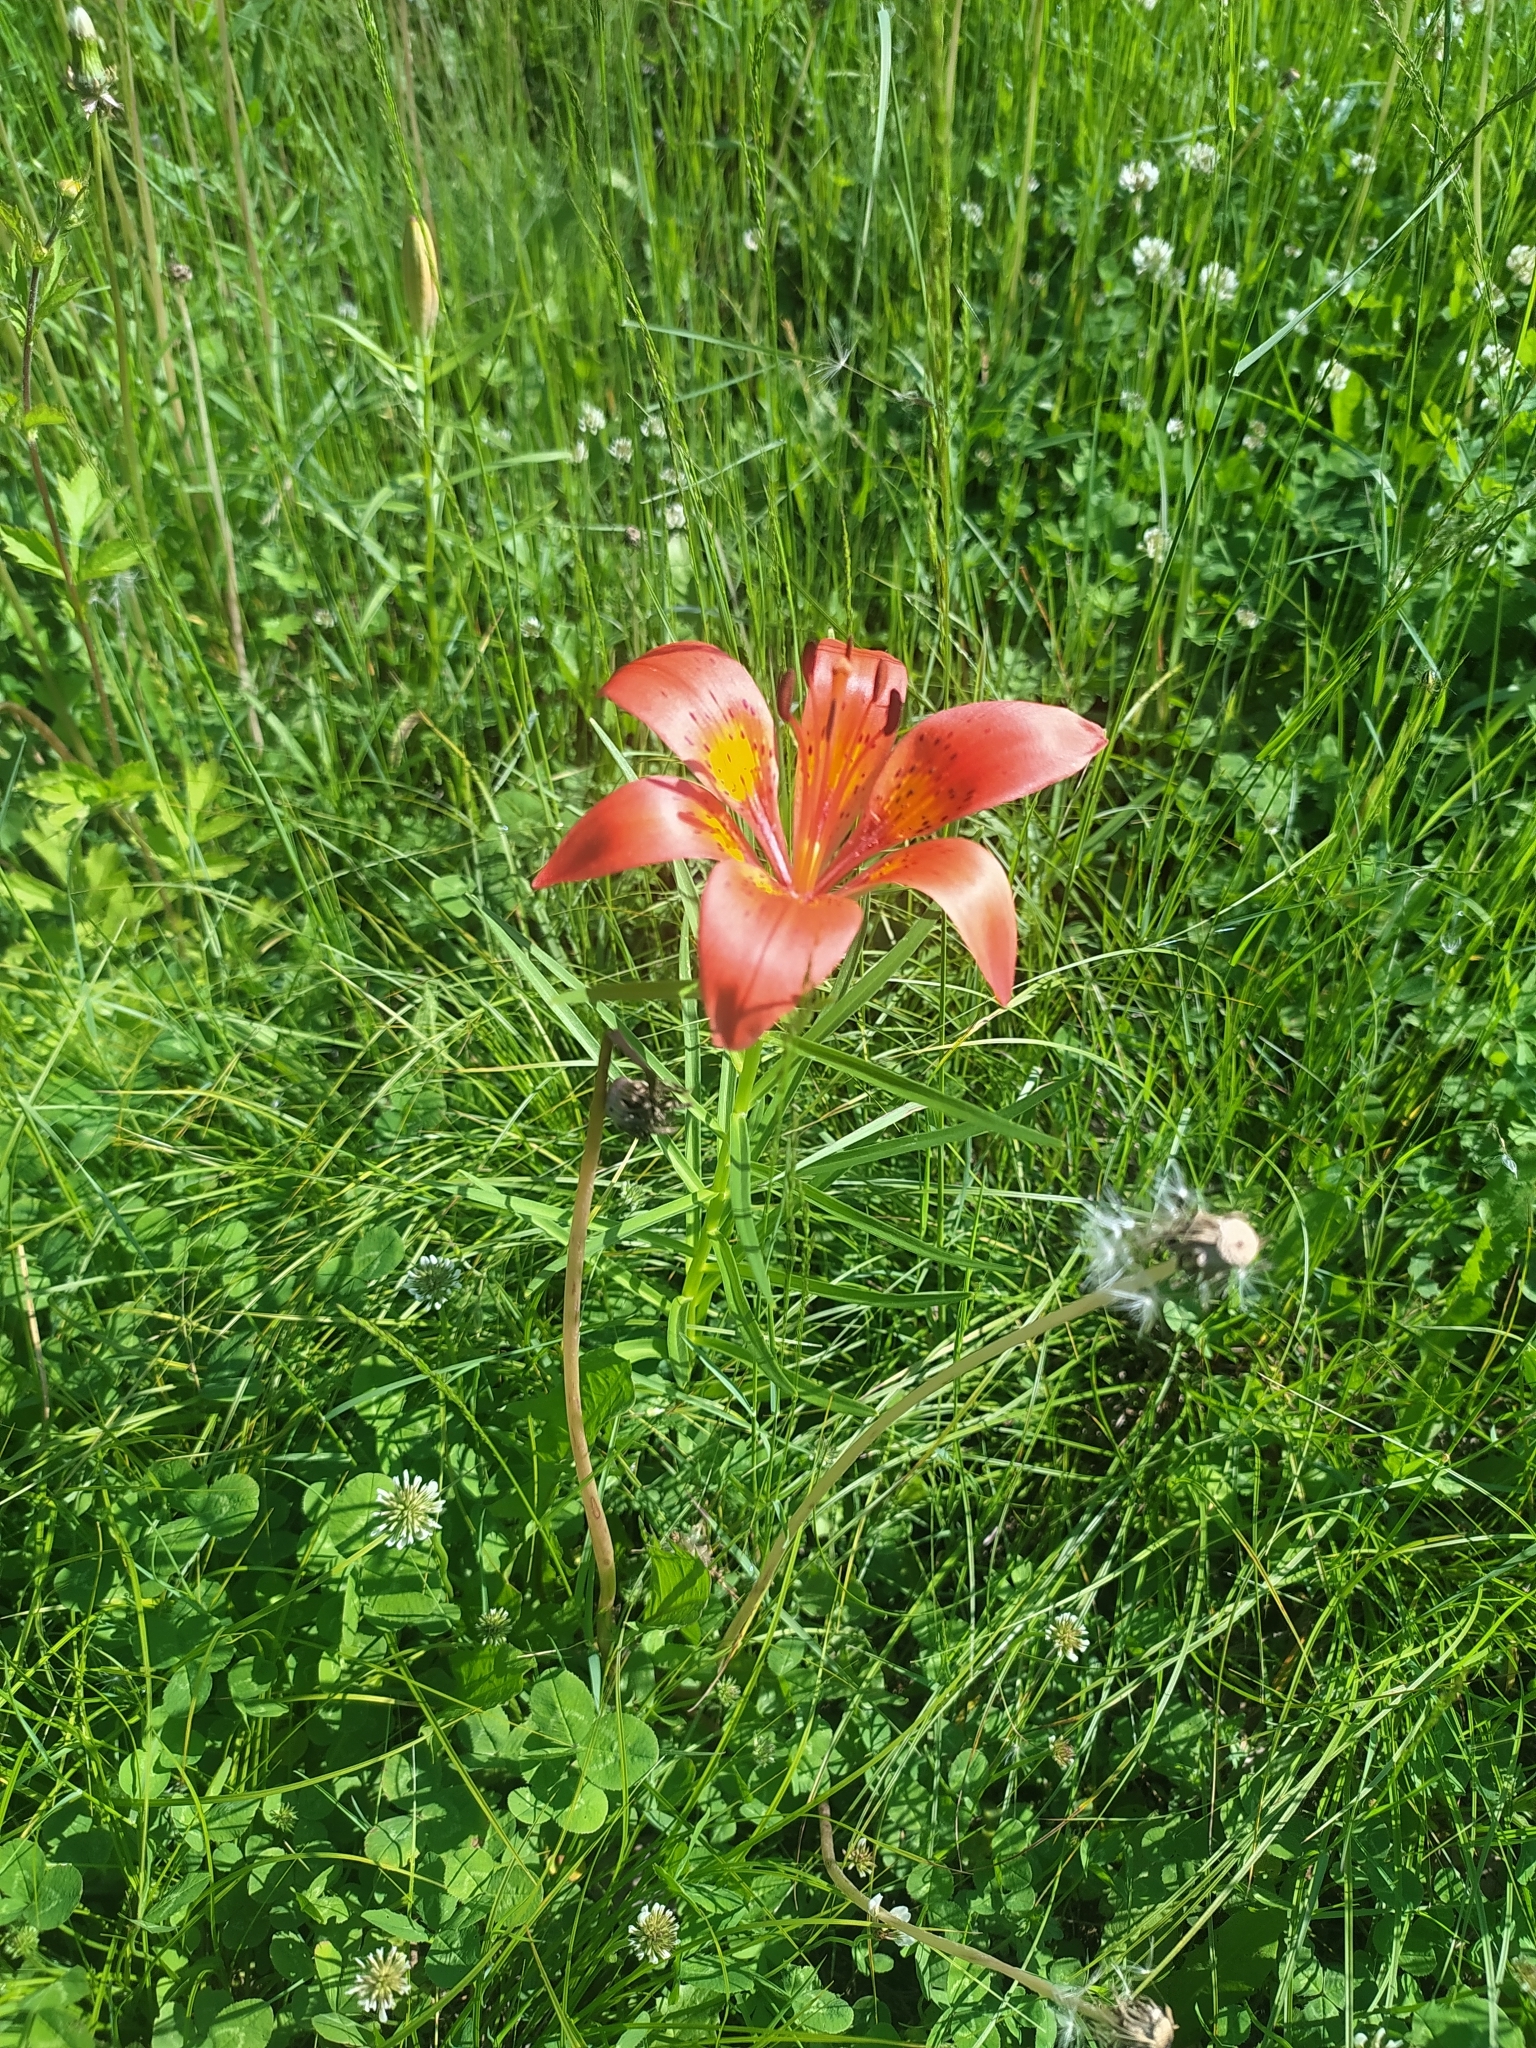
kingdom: Plantae
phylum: Tracheophyta
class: Liliopsida
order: Liliales
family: Liliaceae
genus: Lilium
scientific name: Lilium pensylvanicum
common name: Candlestick lily
